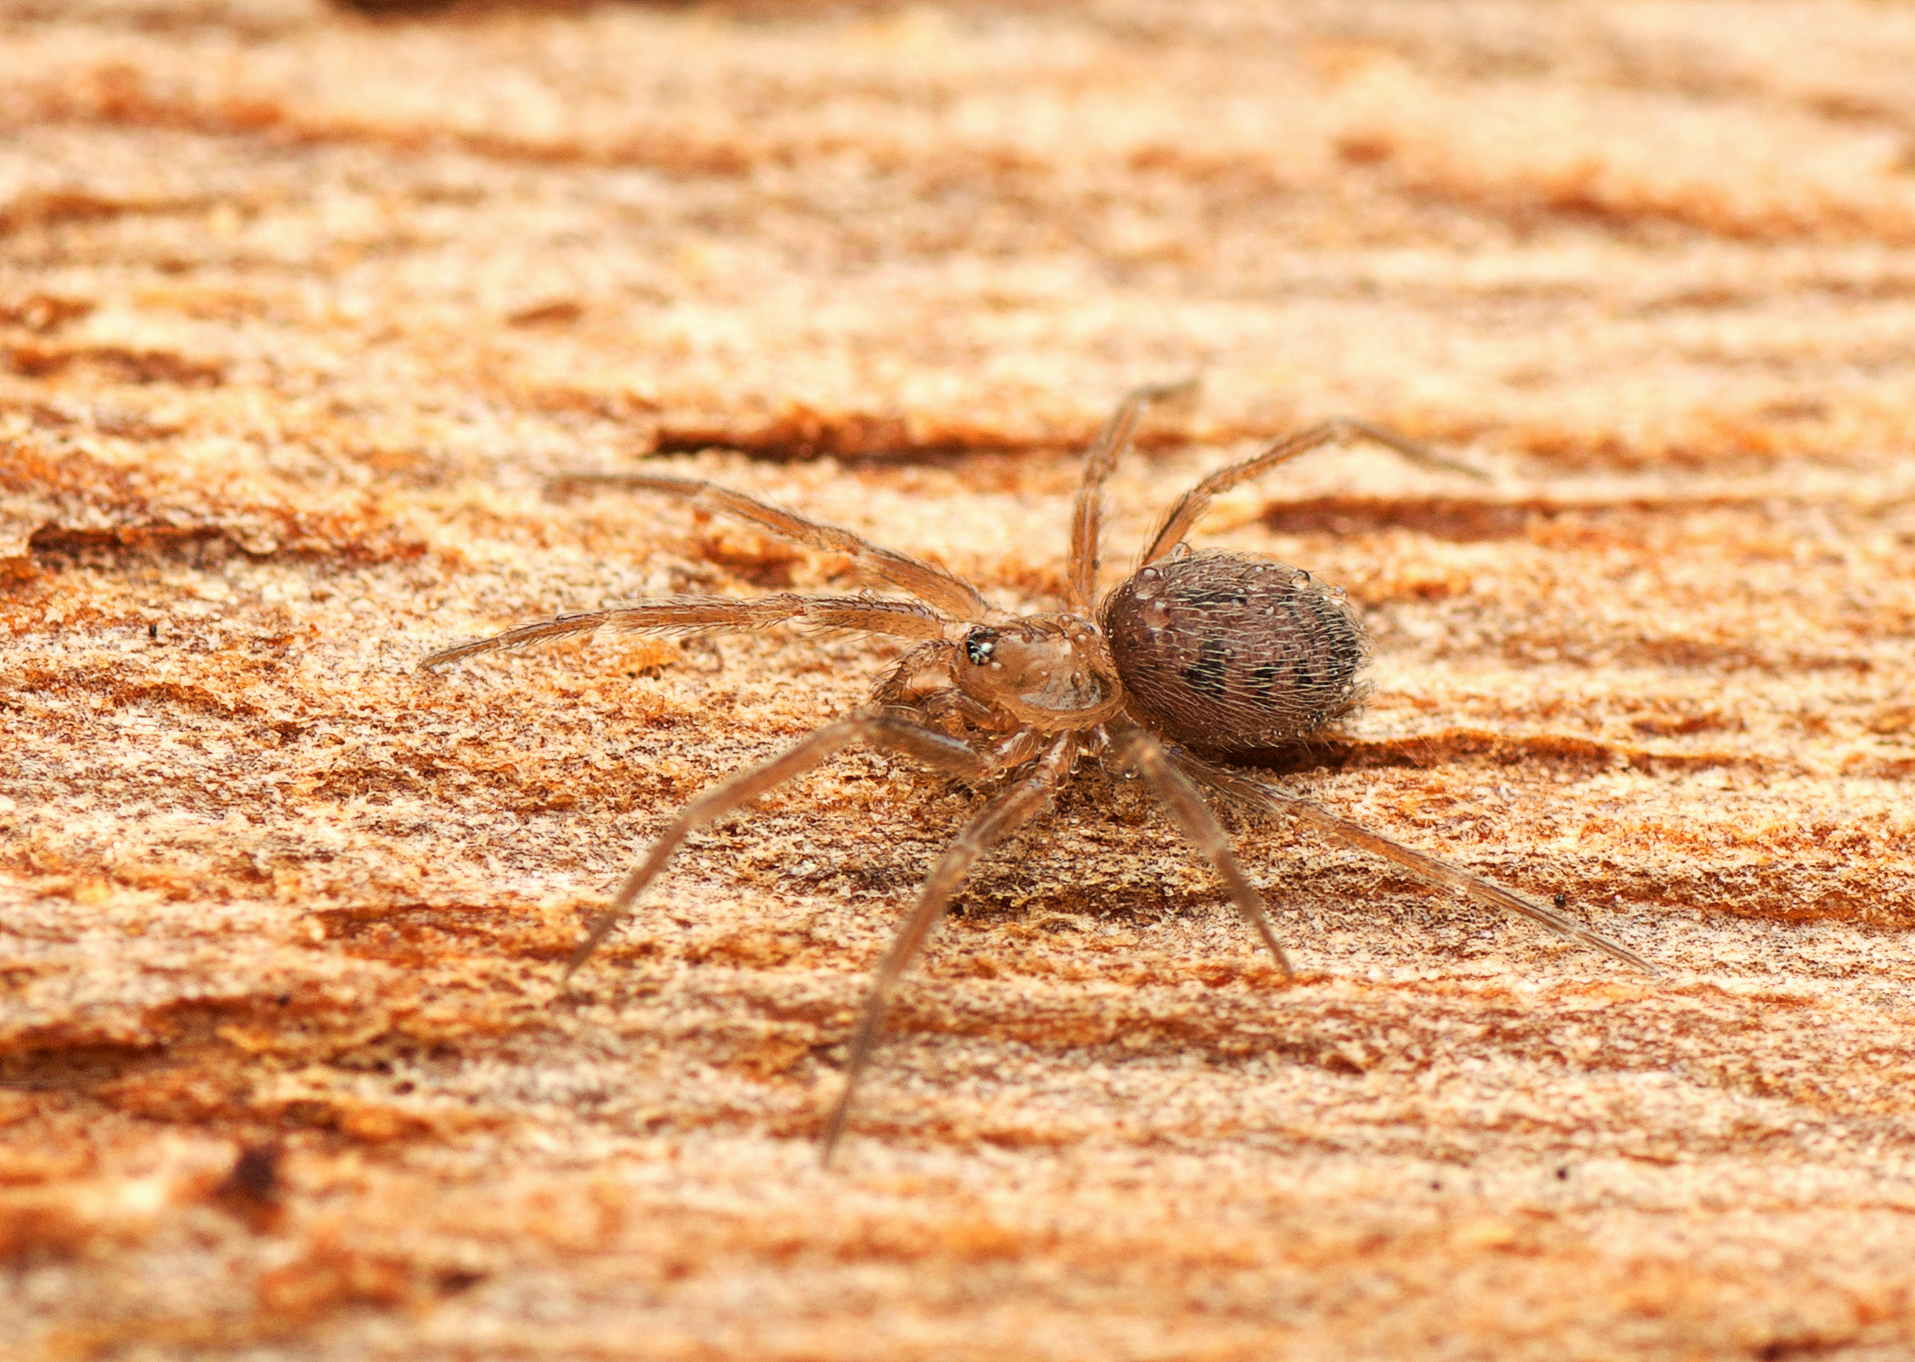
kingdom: Animalia
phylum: Arthropoda
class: Arachnida
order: Araneae
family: Hahniidae
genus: Scotospilus
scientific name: Scotospilus ampullarius
